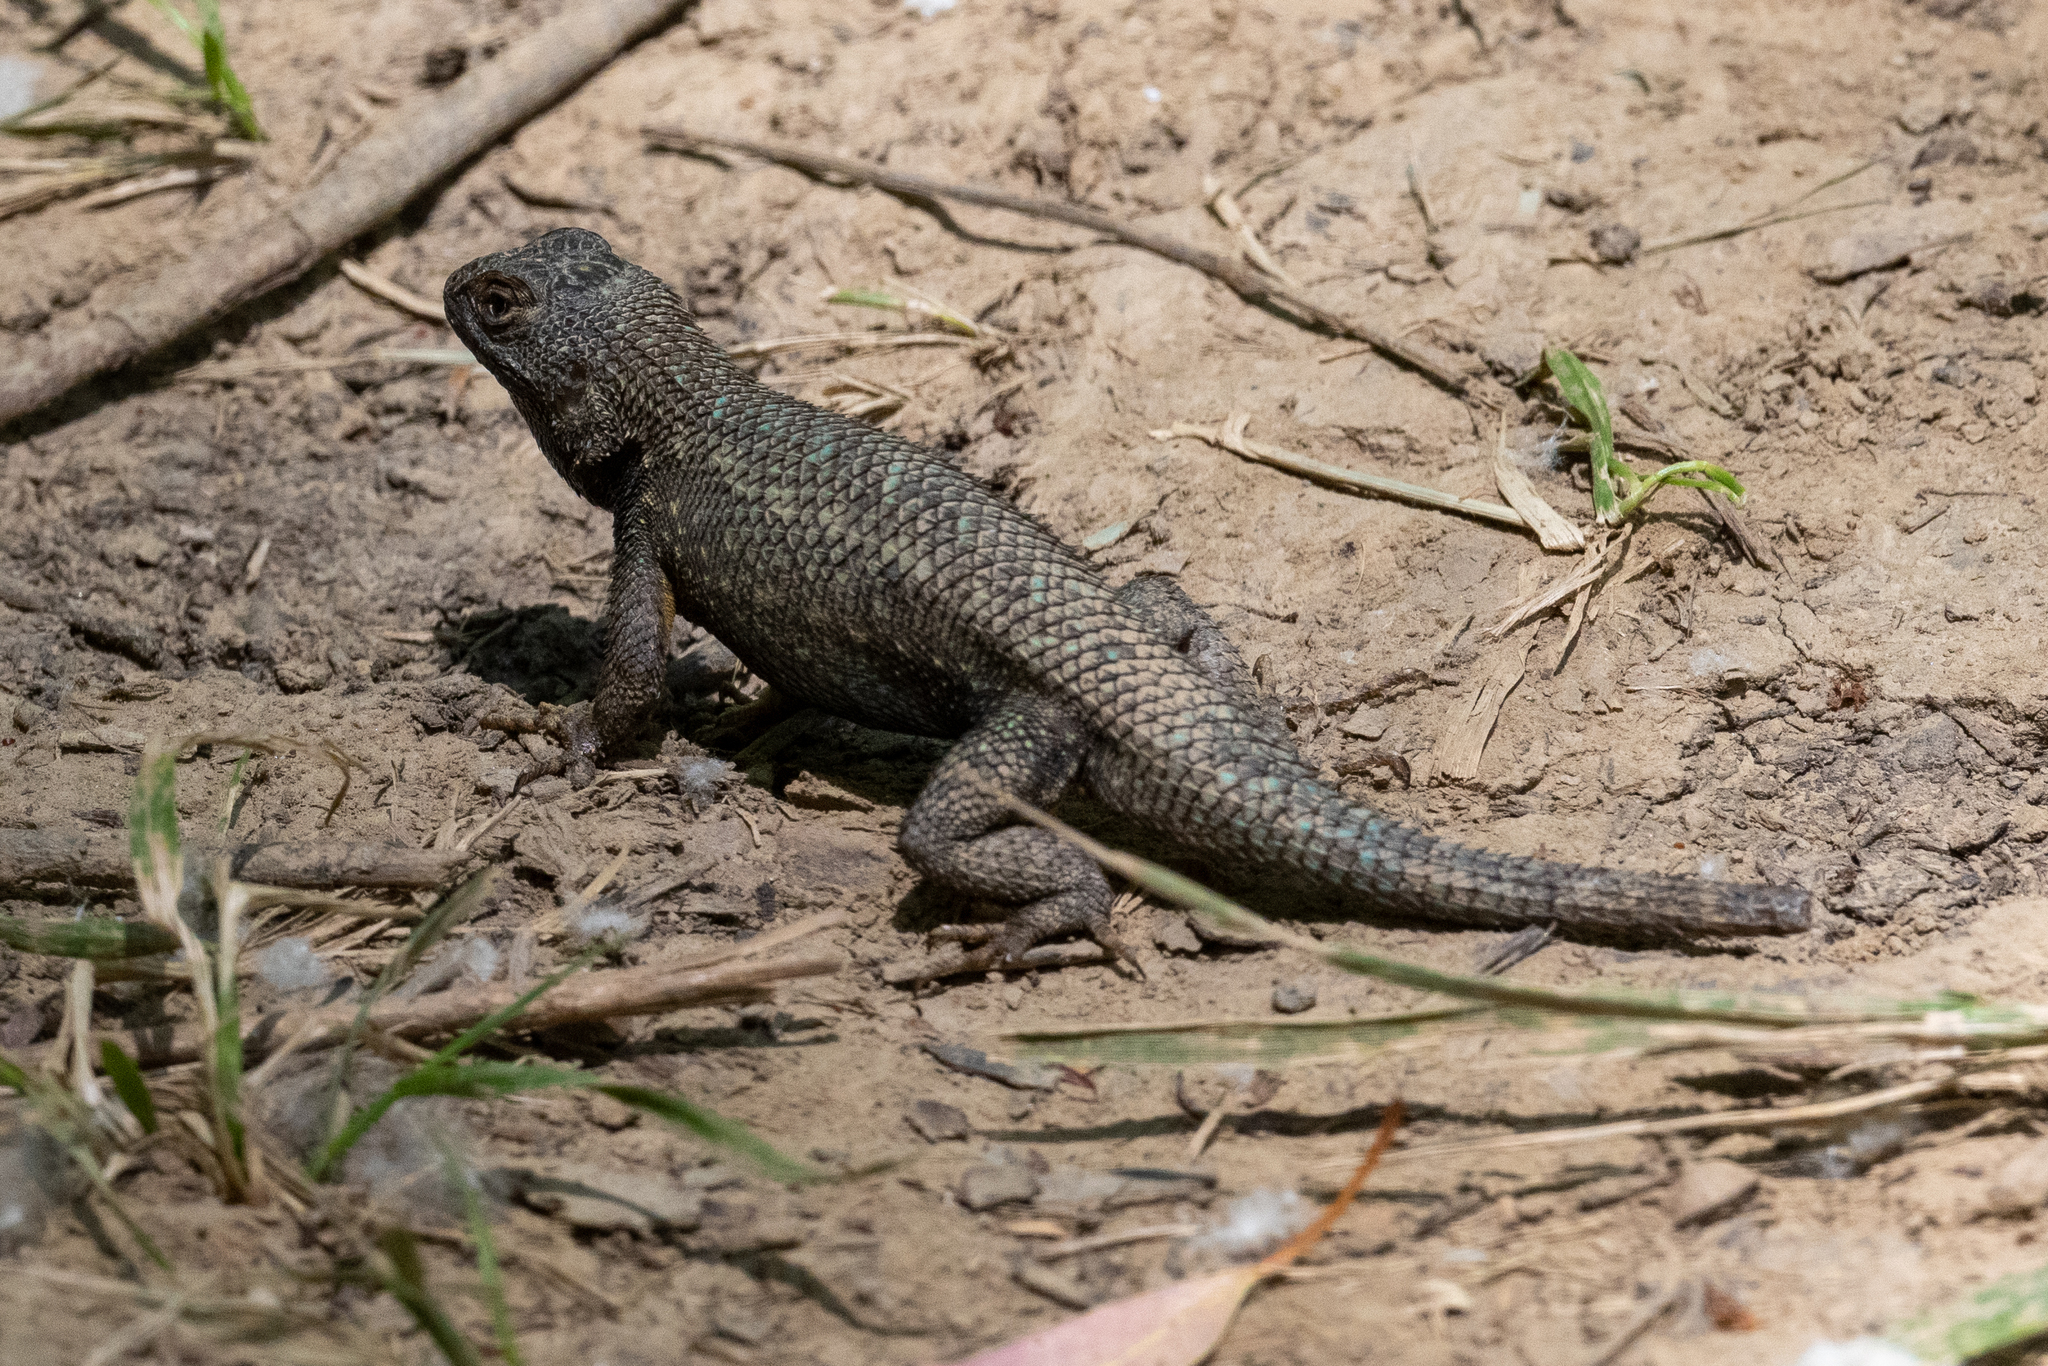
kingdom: Animalia
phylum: Chordata
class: Squamata
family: Phrynosomatidae
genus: Sceloporus
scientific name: Sceloporus occidentalis
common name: Western fence lizard
